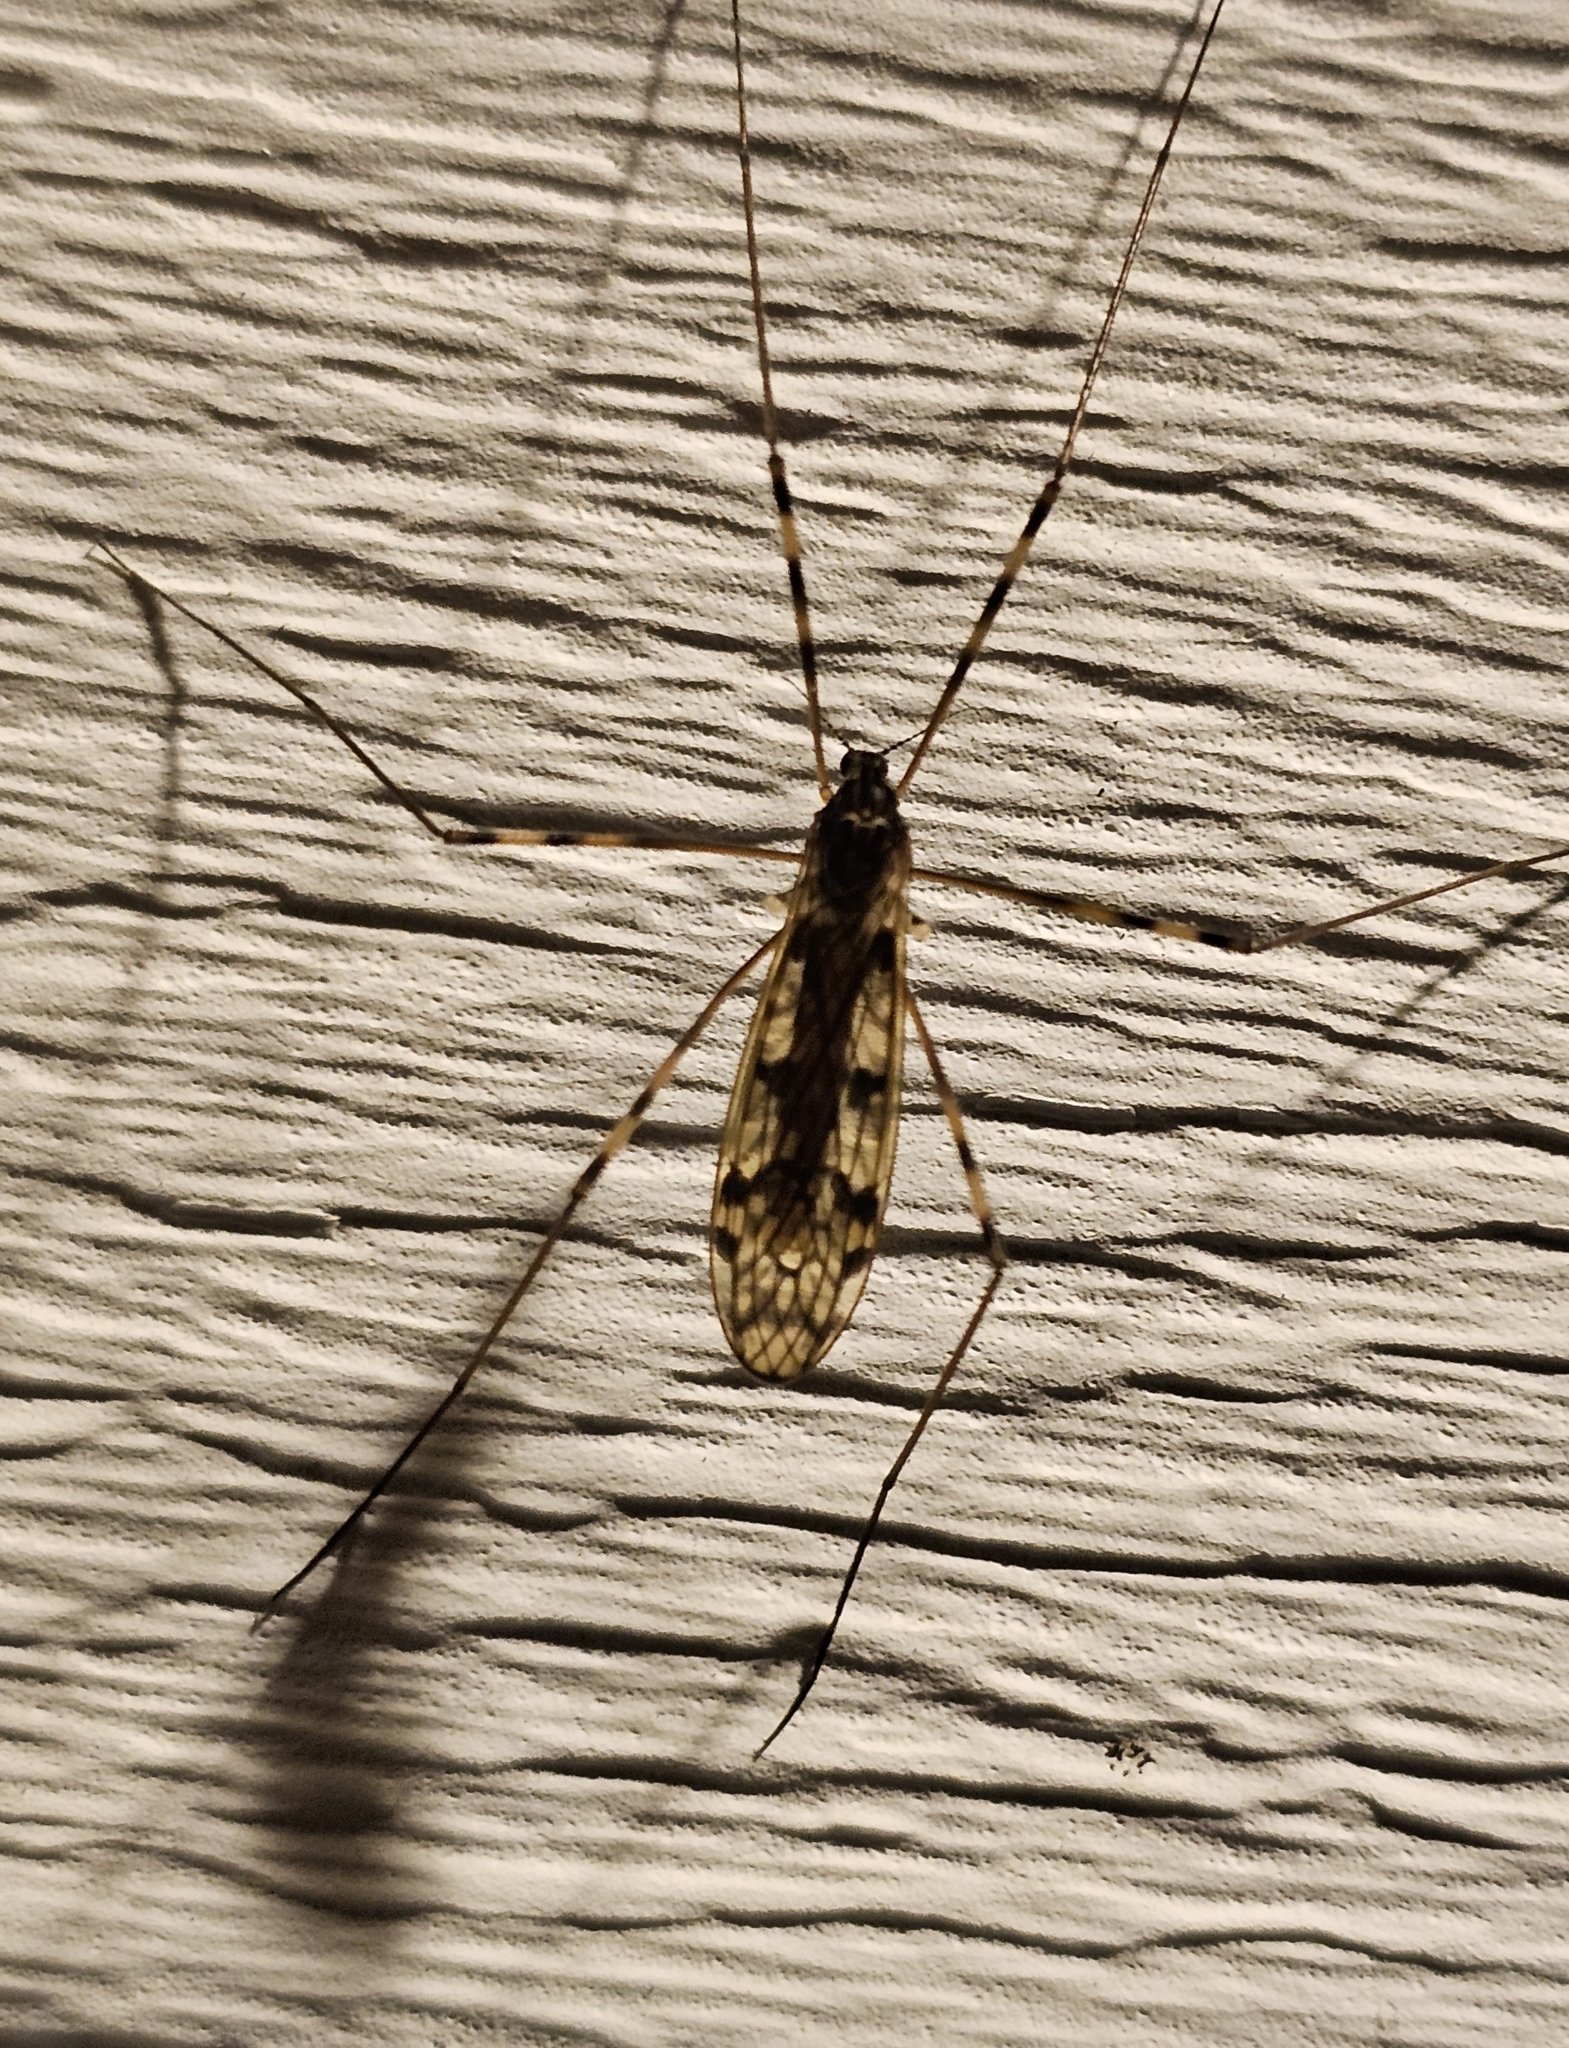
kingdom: Animalia
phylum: Arthropoda
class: Insecta
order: Diptera
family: Limoniidae
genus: Metalimnobia
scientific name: Metalimnobia immatura
